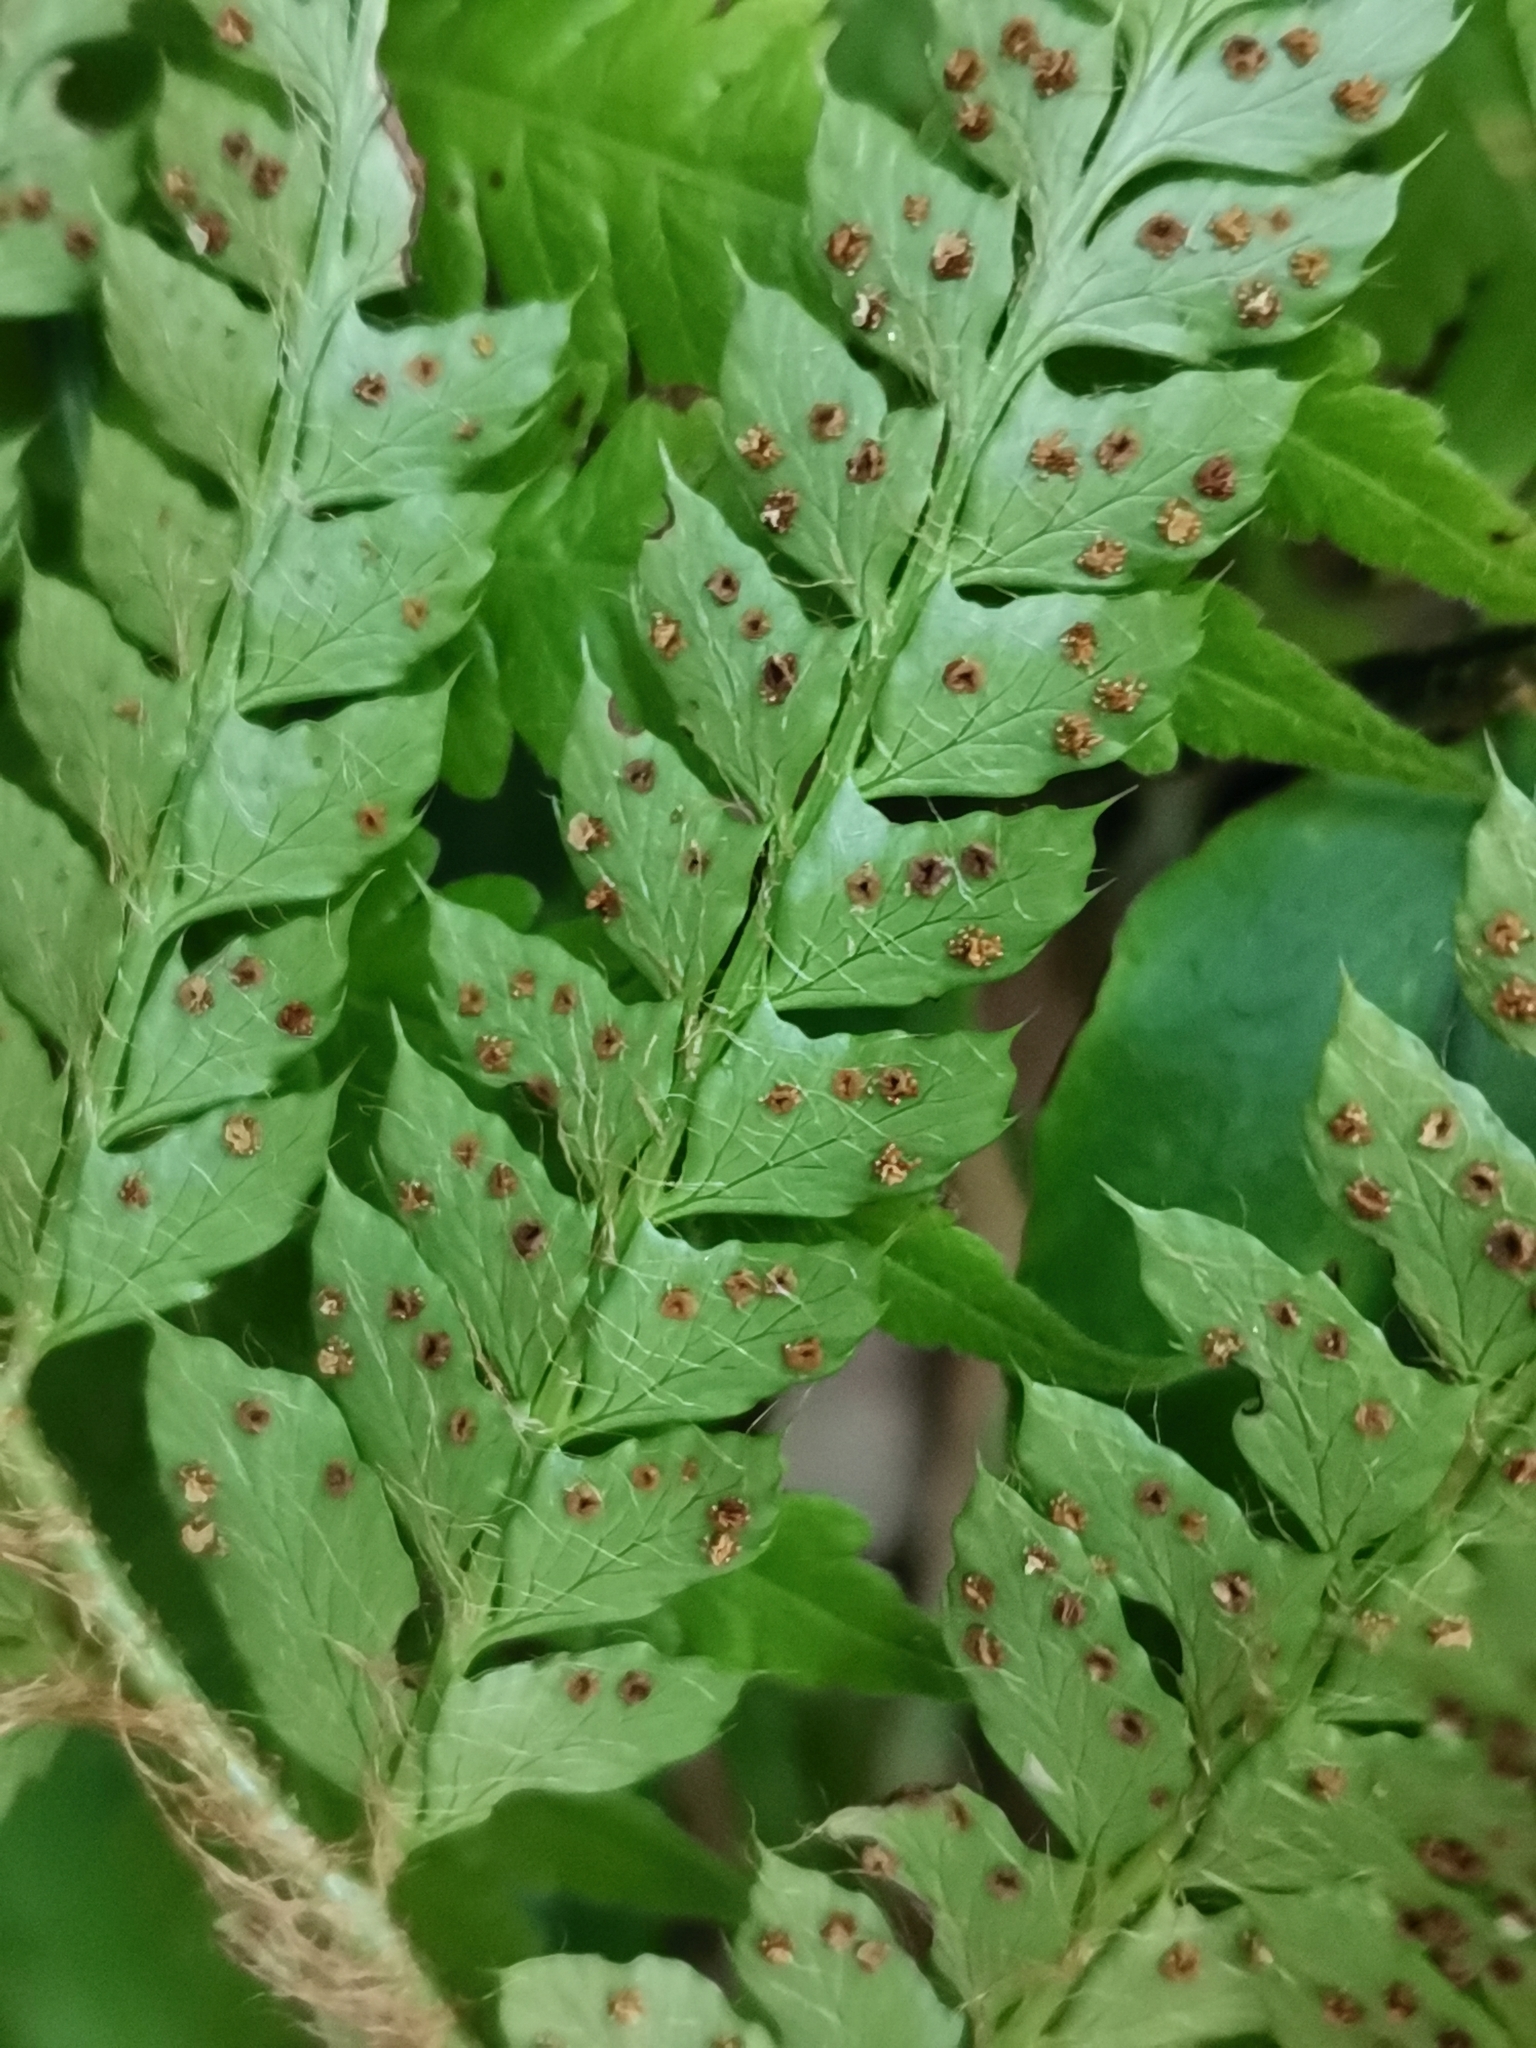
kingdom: Plantae
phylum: Tracheophyta
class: Polypodiopsida
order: Polypodiales
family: Dryopteridaceae
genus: Polystichum
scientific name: Polystichum luctuosum
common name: Korean rockfern
